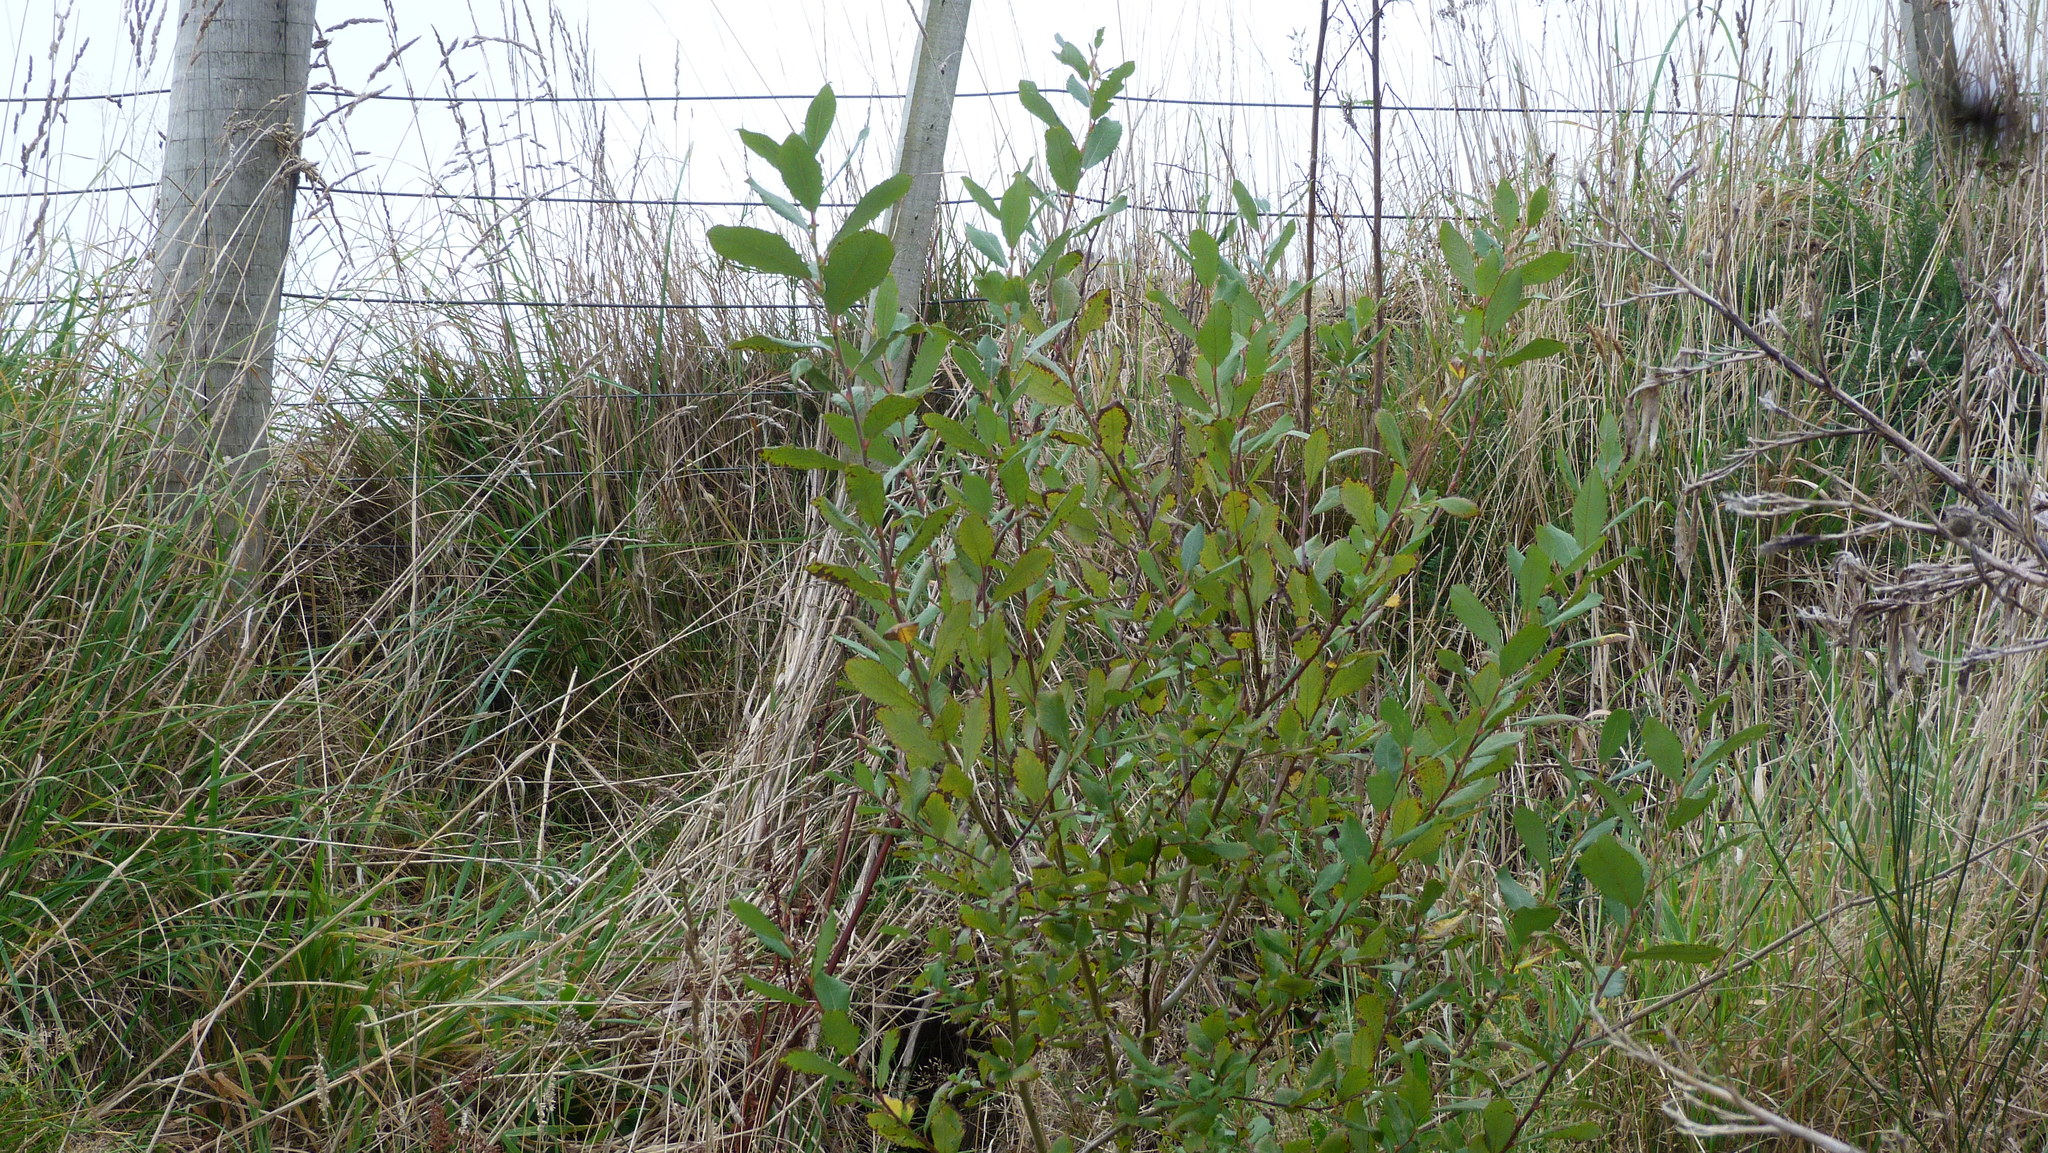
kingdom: Plantae
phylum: Tracheophyta
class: Magnoliopsida
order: Malpighiales
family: Salicaceae
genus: Salix
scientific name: Salix cinerea
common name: Common sallow
